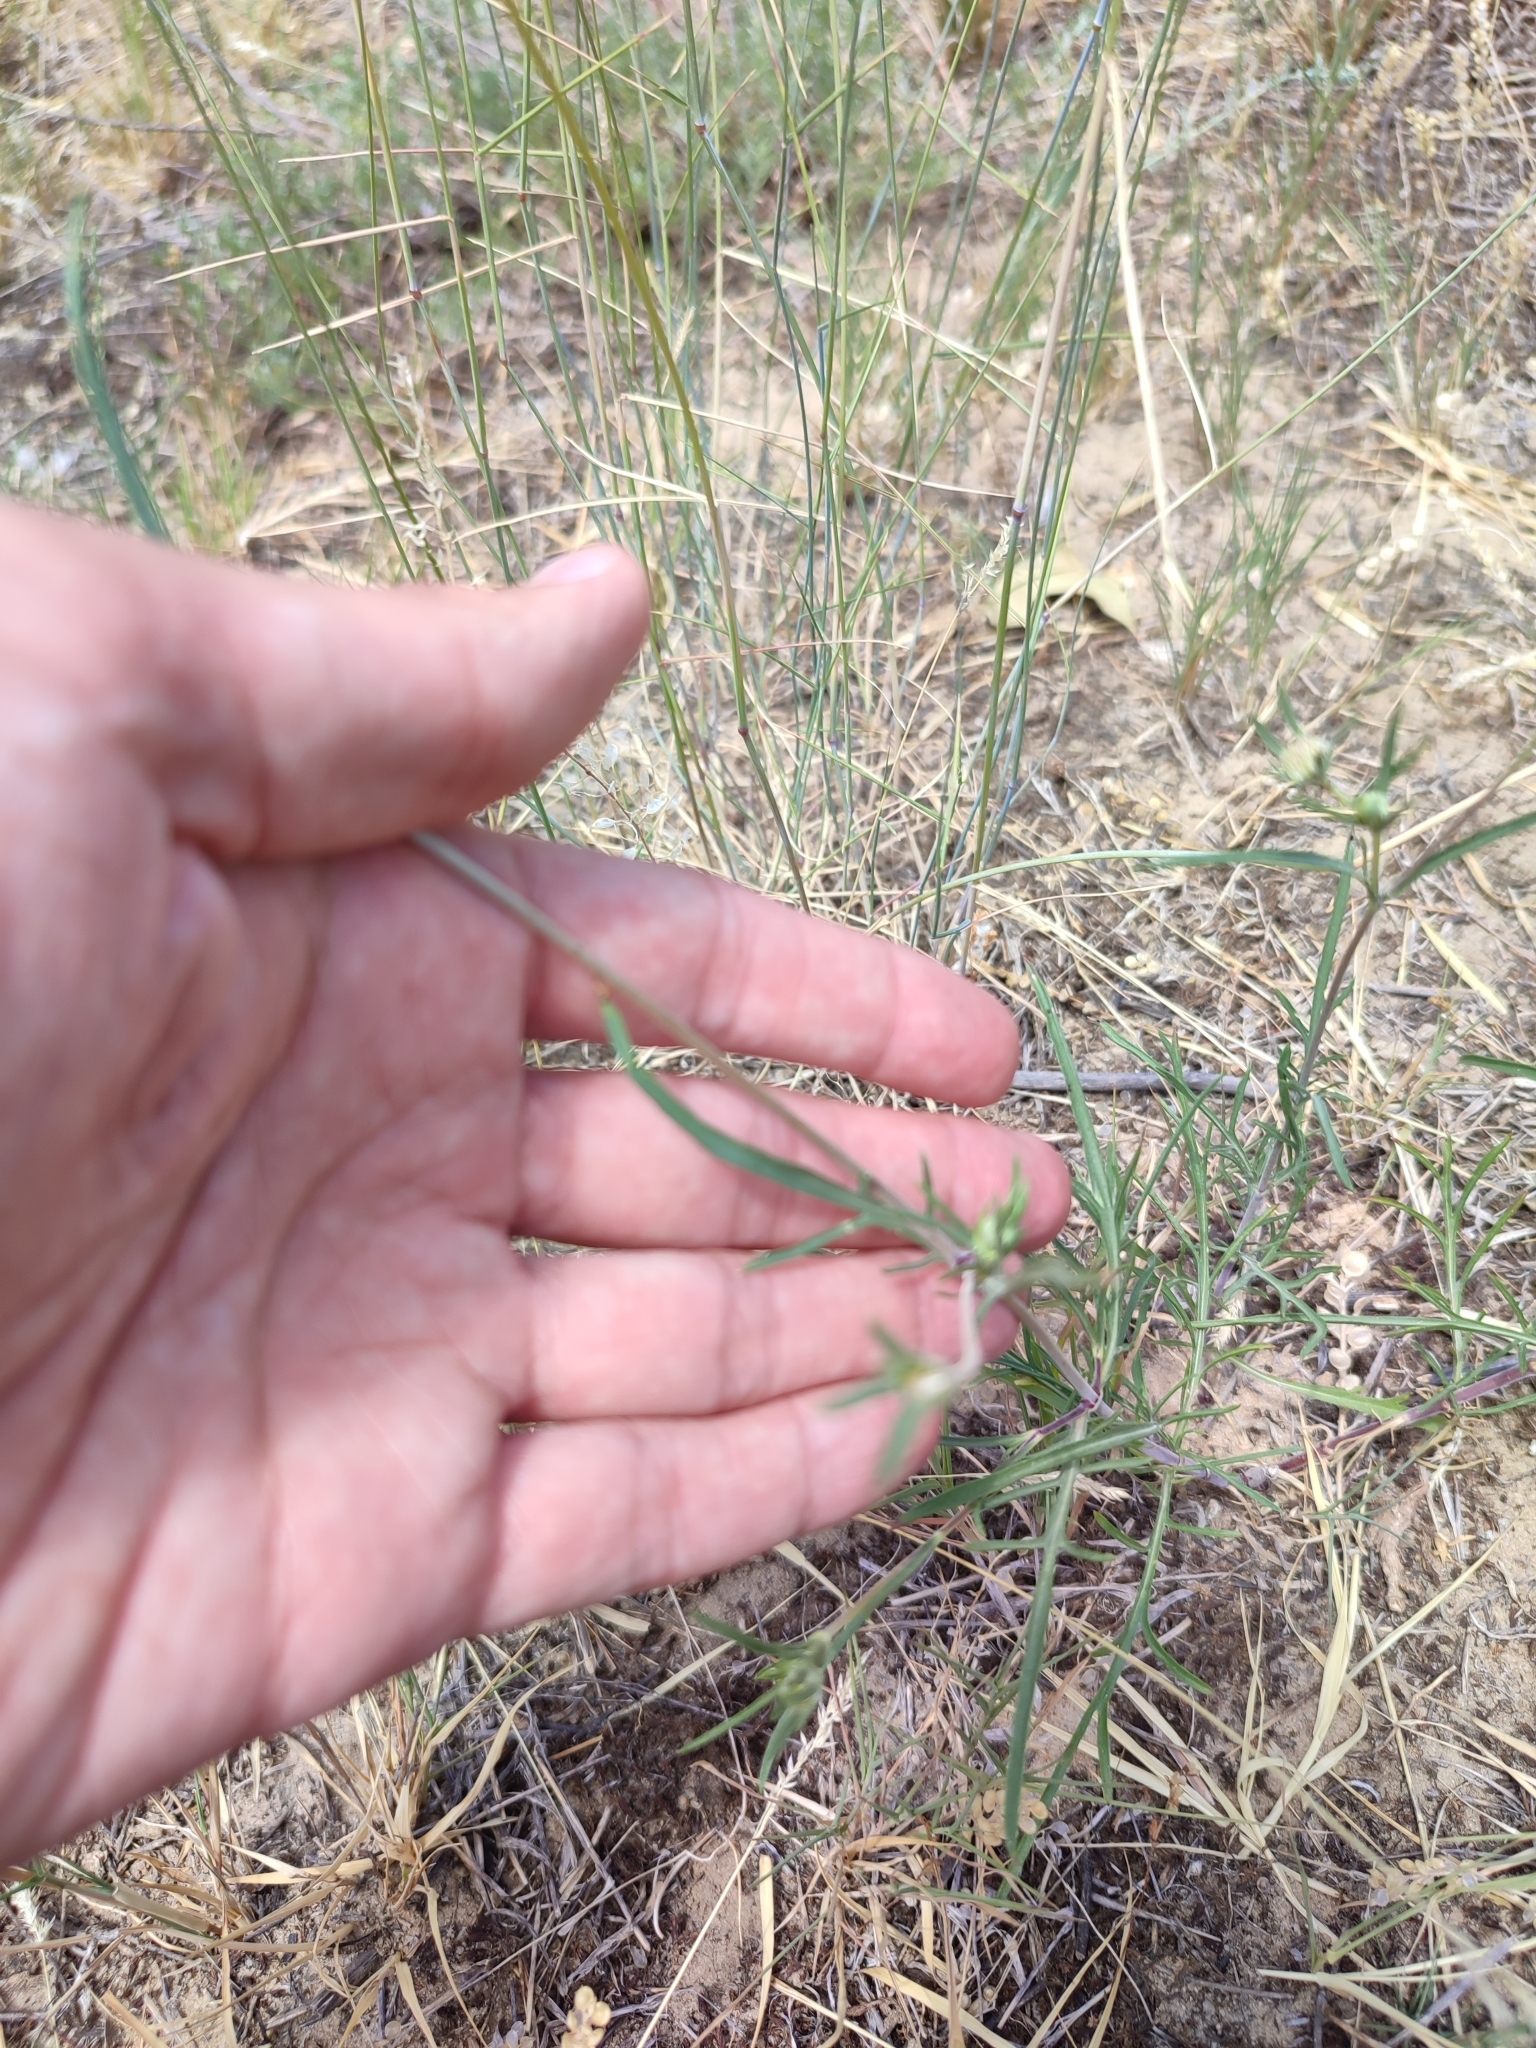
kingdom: Plantae
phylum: Tracheophyta
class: Magnoliopsida
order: Dipsacales
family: Caprifoliaceae
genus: Lomelosia
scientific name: Lomelosia argentea
